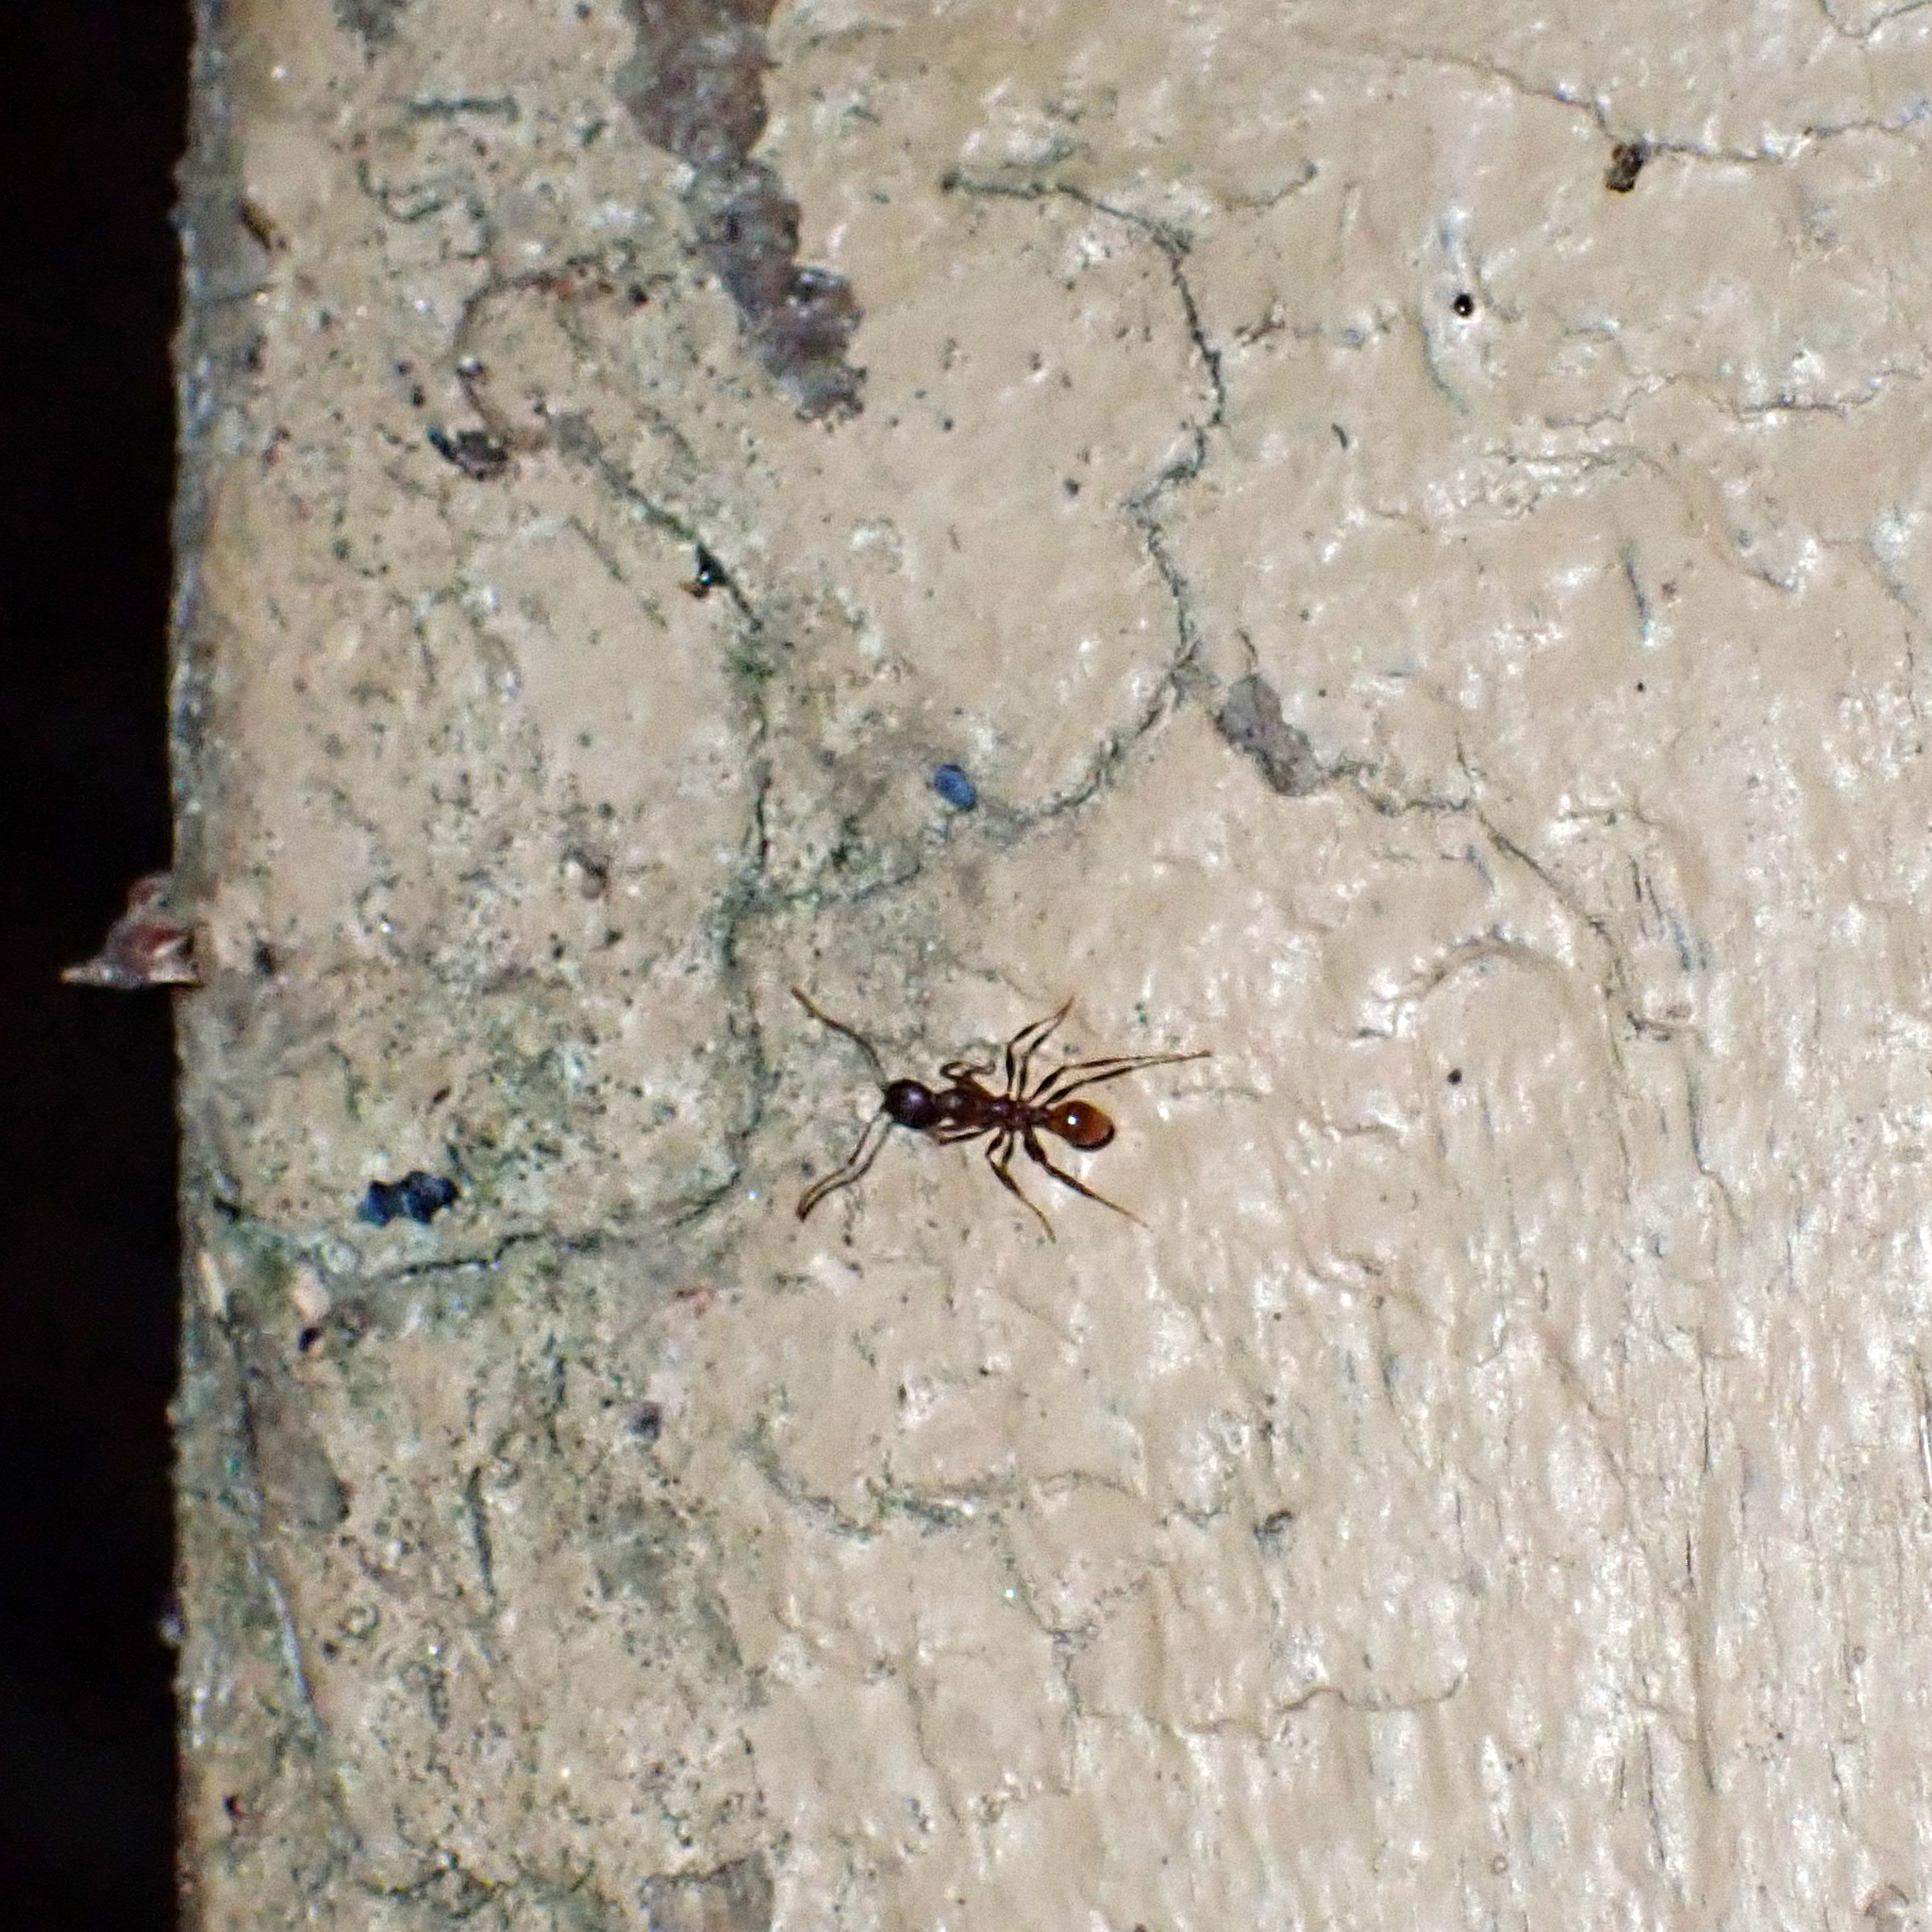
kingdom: Animalia
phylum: Arthropoda
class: Insecta
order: Hymenoptera
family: Formicidae
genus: Aphaenogaster
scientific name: Aphaenogaster lamellidens
